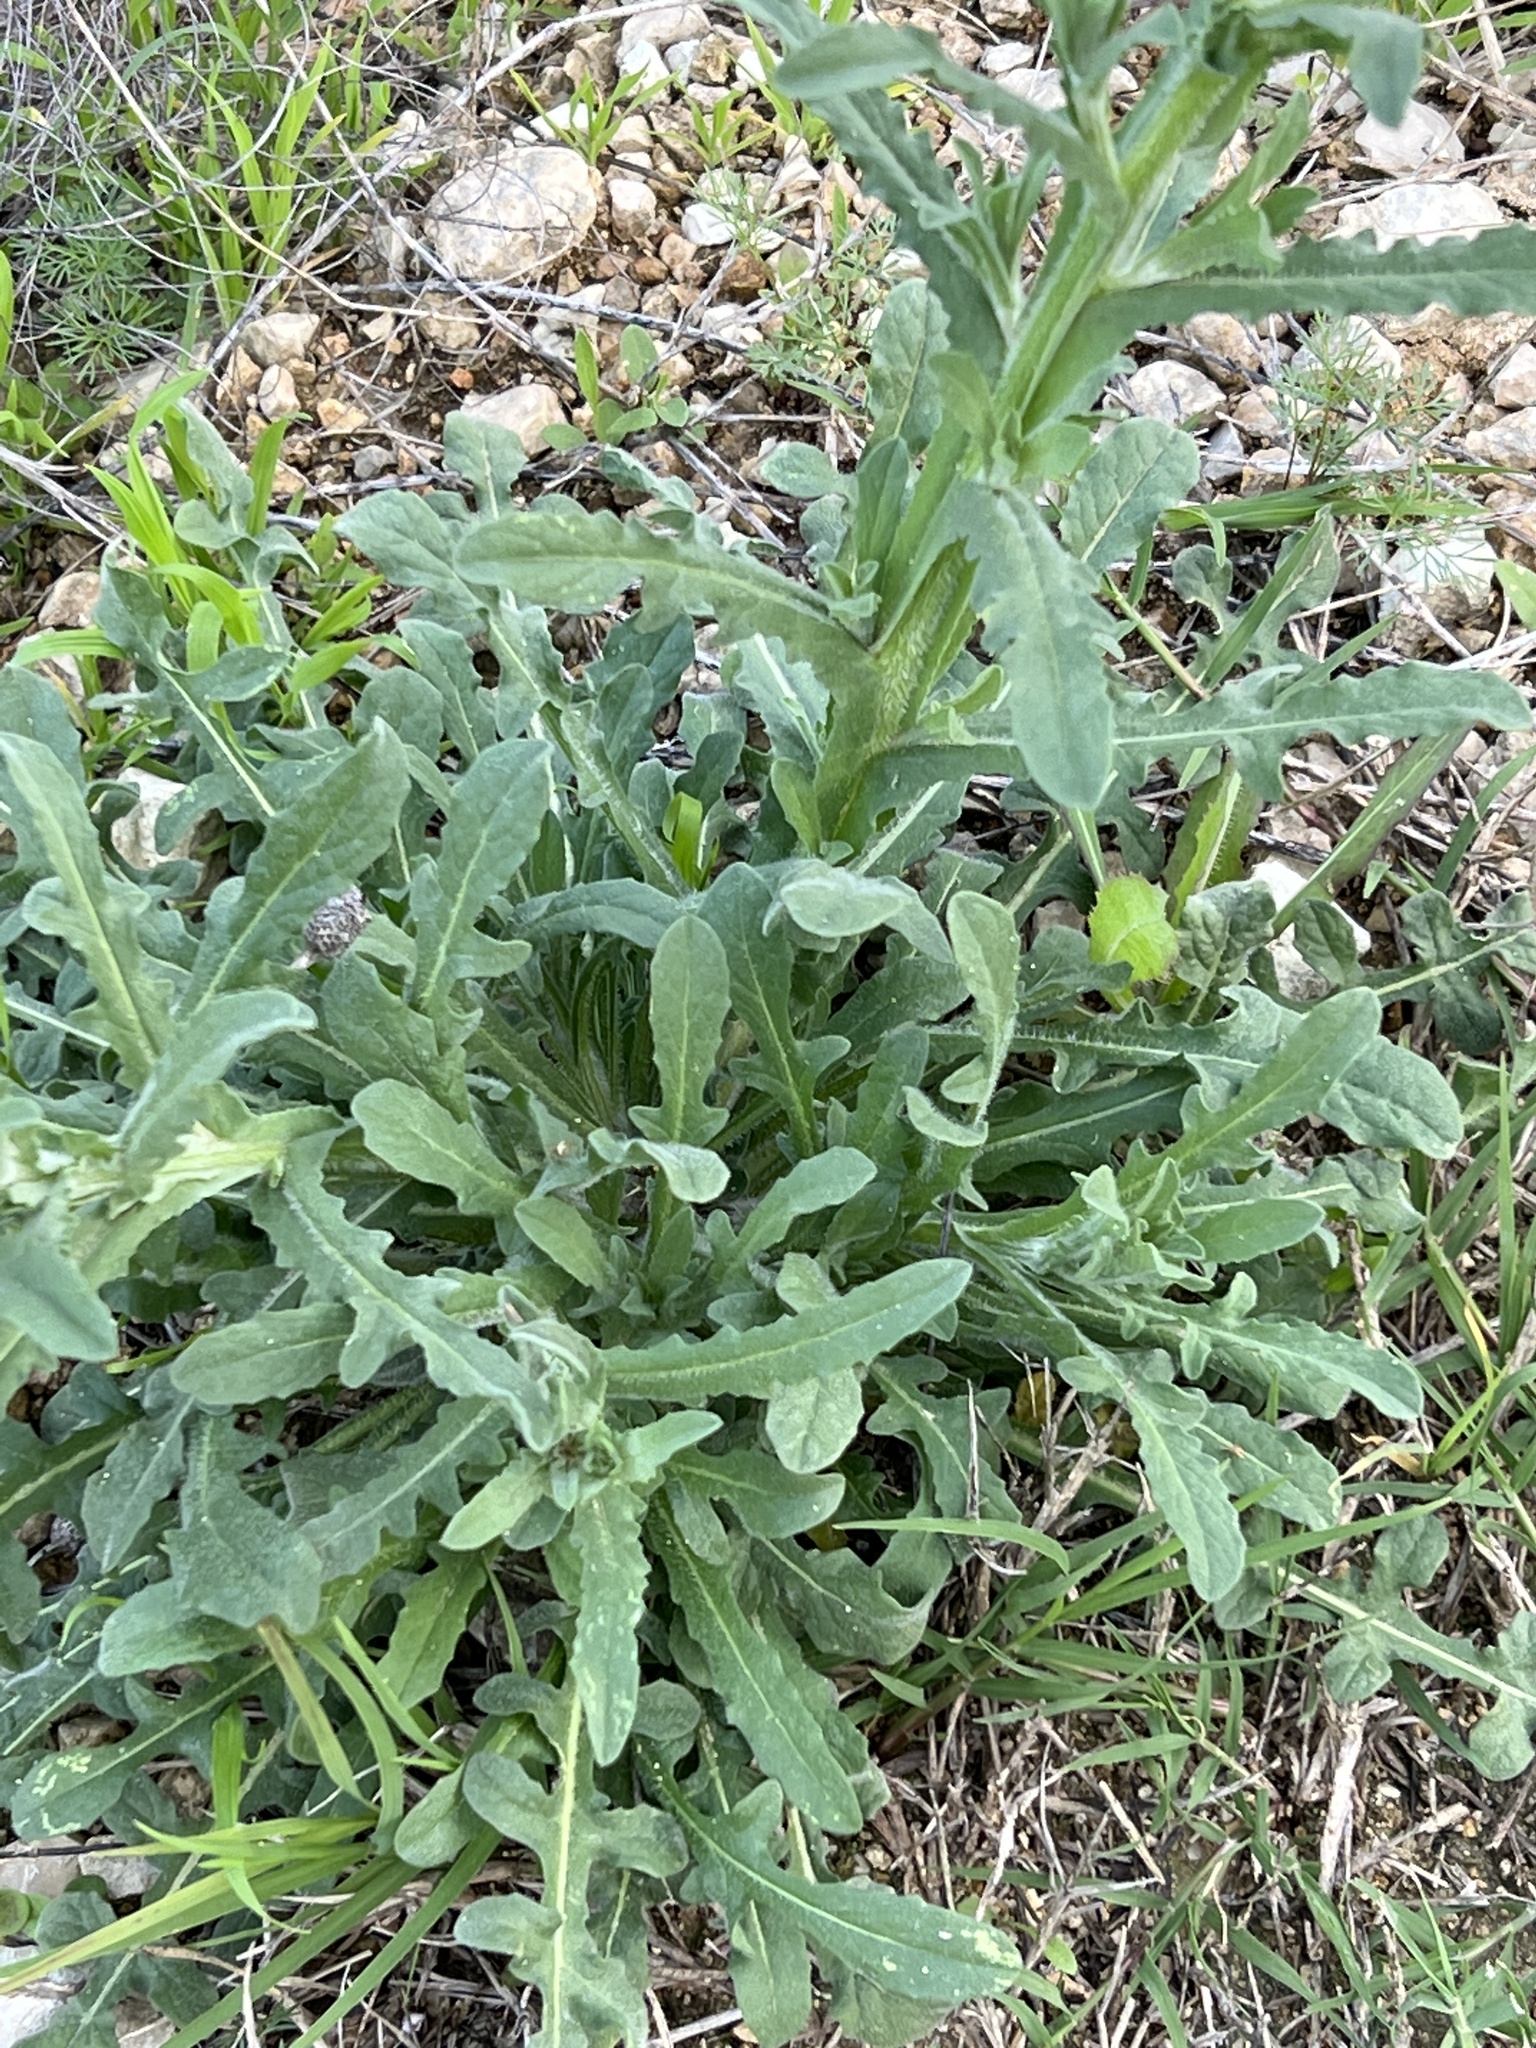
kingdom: Plantae
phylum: Tracheophyta
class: Magnoliopsida
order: Asterales
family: Asteraceae
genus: Centaurea
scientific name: Centaurea melitensis
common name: Maltese star-thistle
